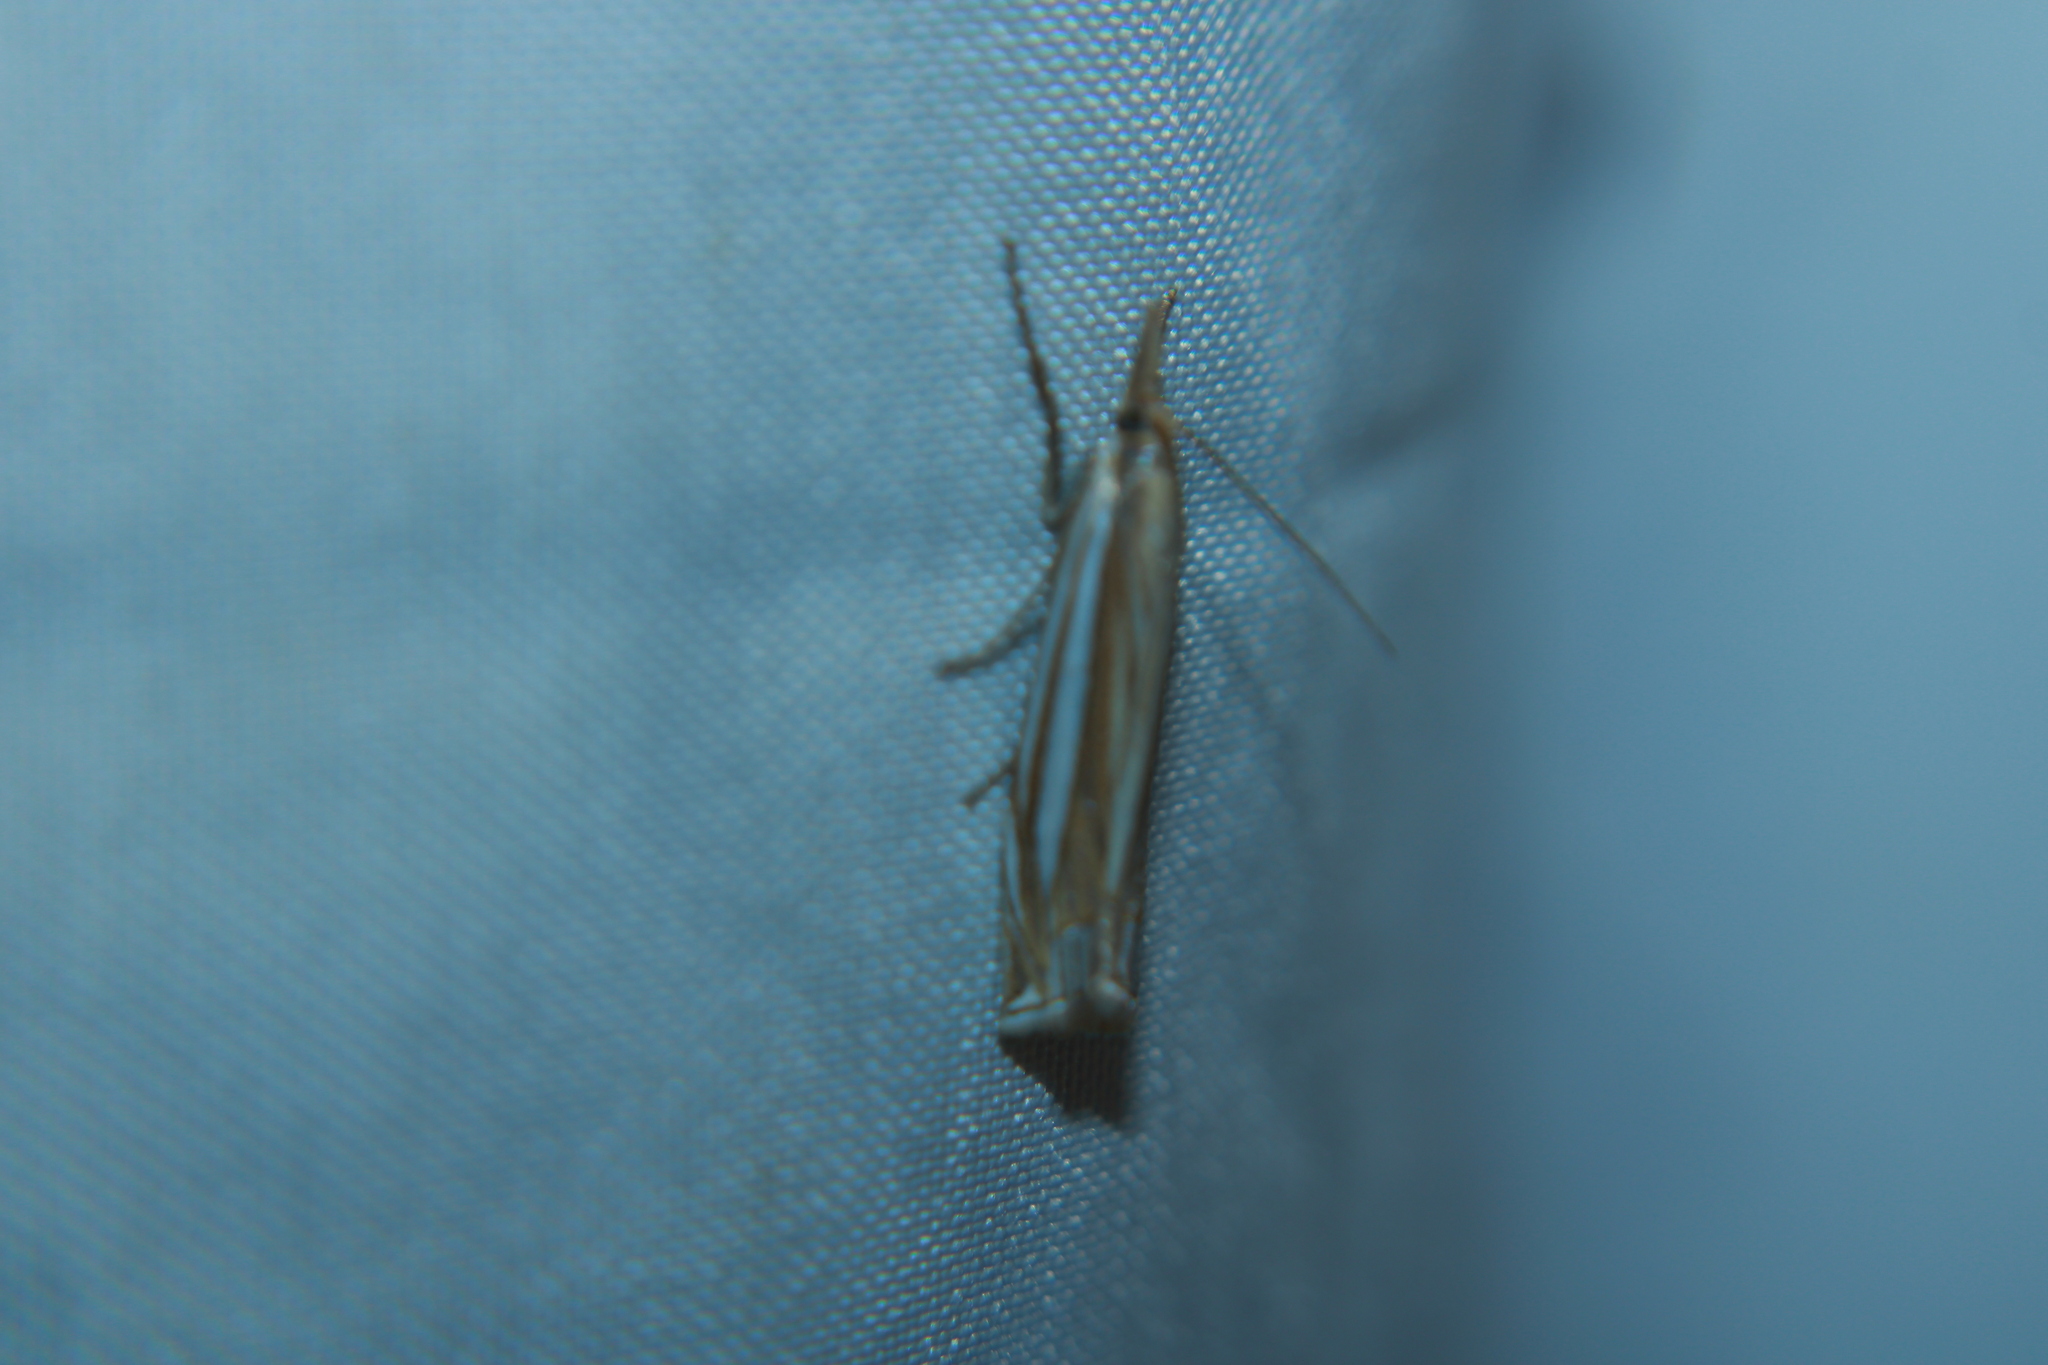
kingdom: Animalia
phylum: Arthropoda
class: Insecta
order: Lepidoptera
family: Crambidae
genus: Crambus
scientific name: Crambus laqueatellus
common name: Eastern grass-veneer
